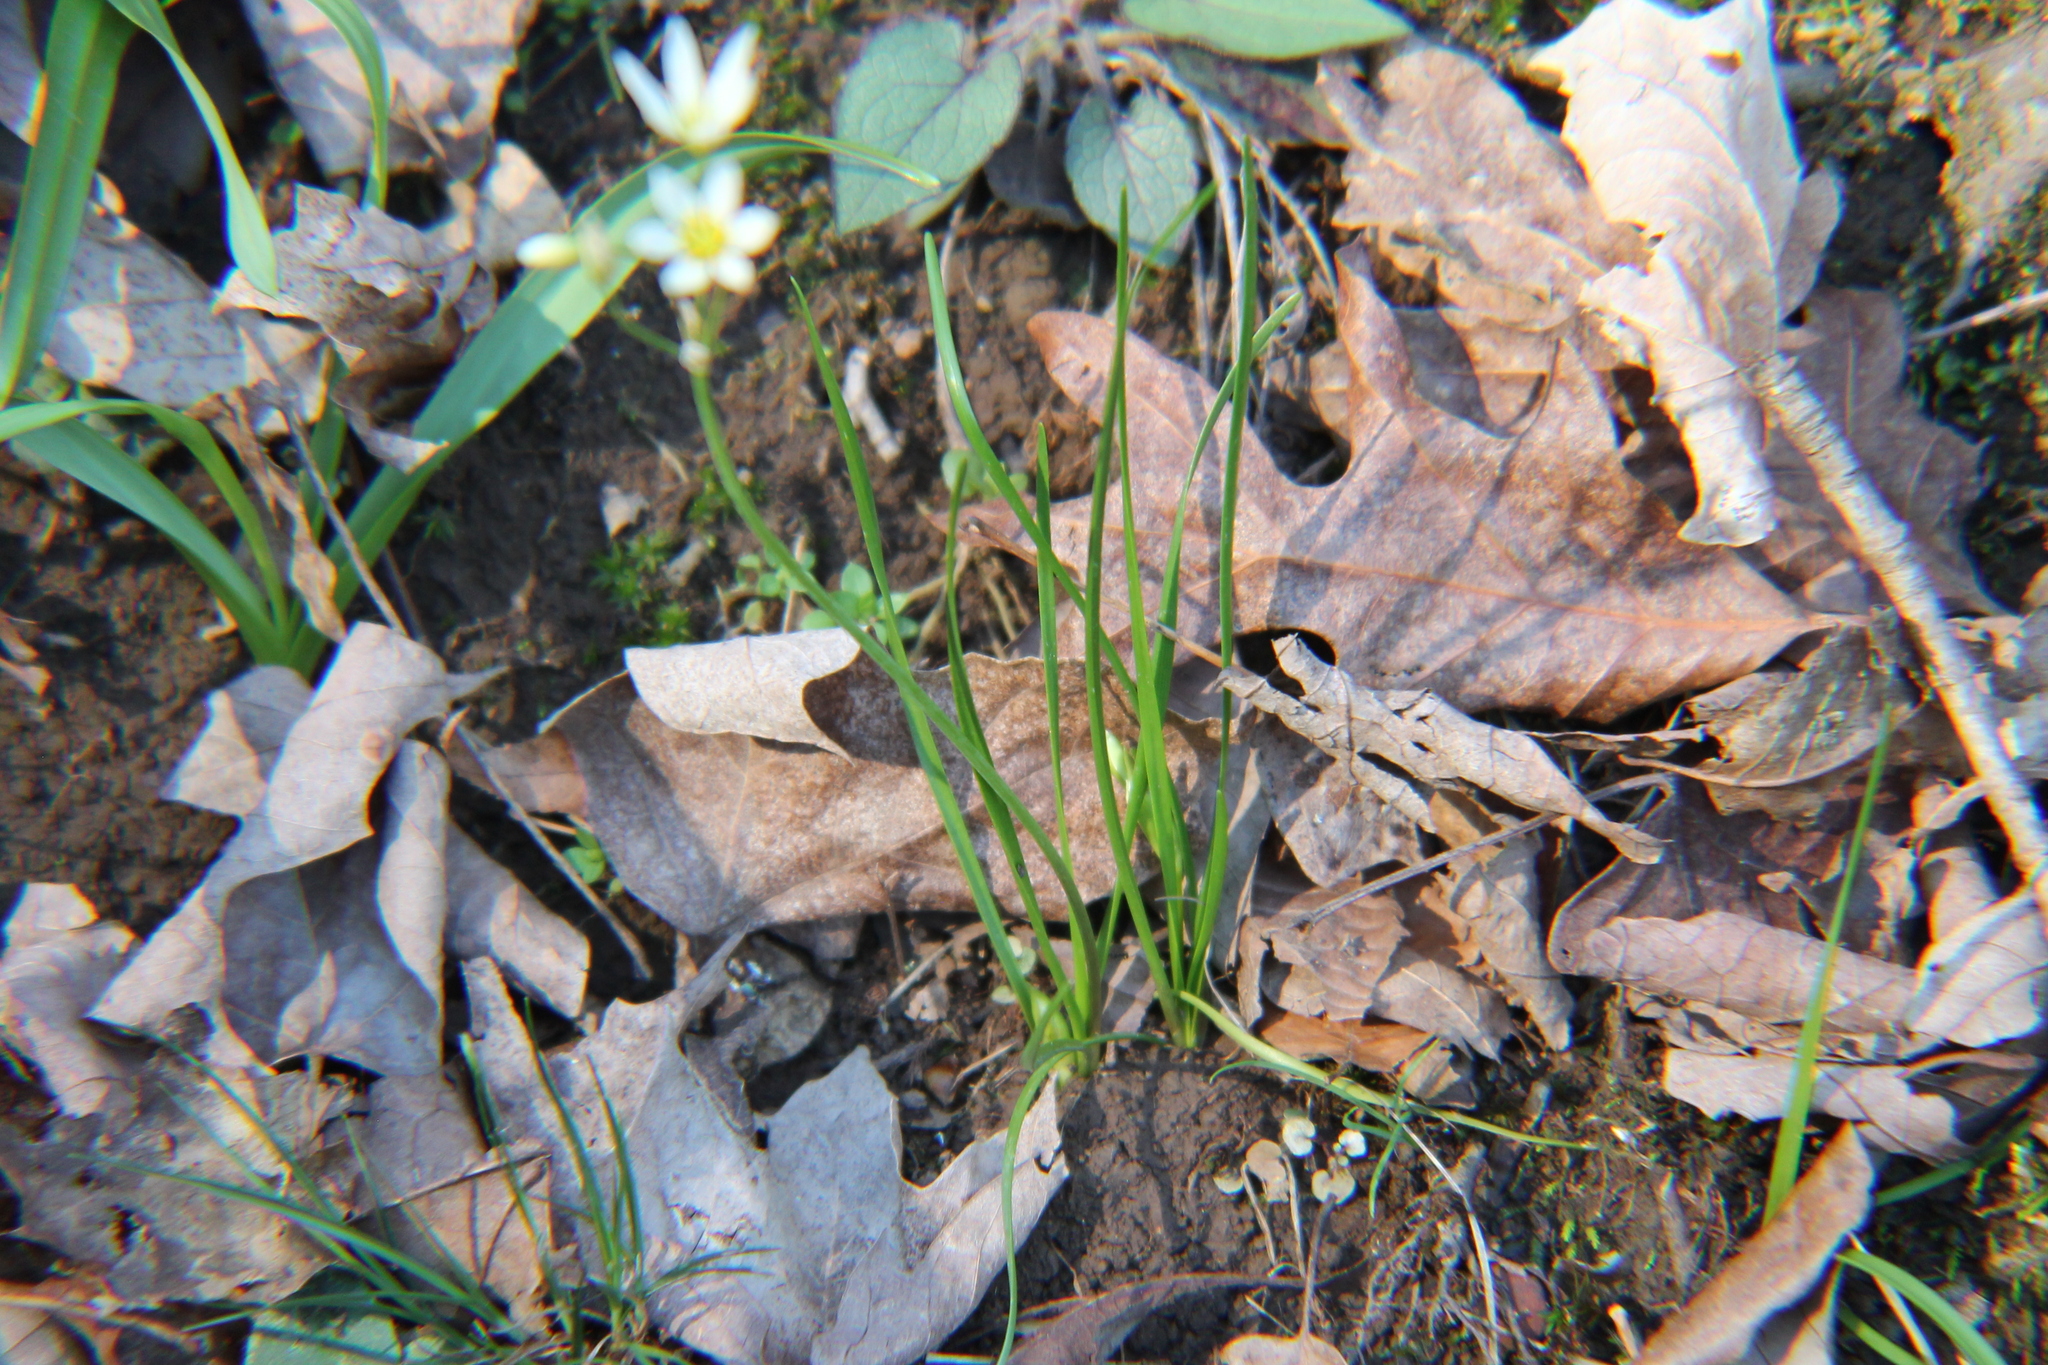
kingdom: Plantae
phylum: Tracheophyta
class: Liliopsida
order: Asparagales
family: Amaryllidaceae
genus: Nothoscordum
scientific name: Nothoscordum bivalve
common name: Crow-poison
